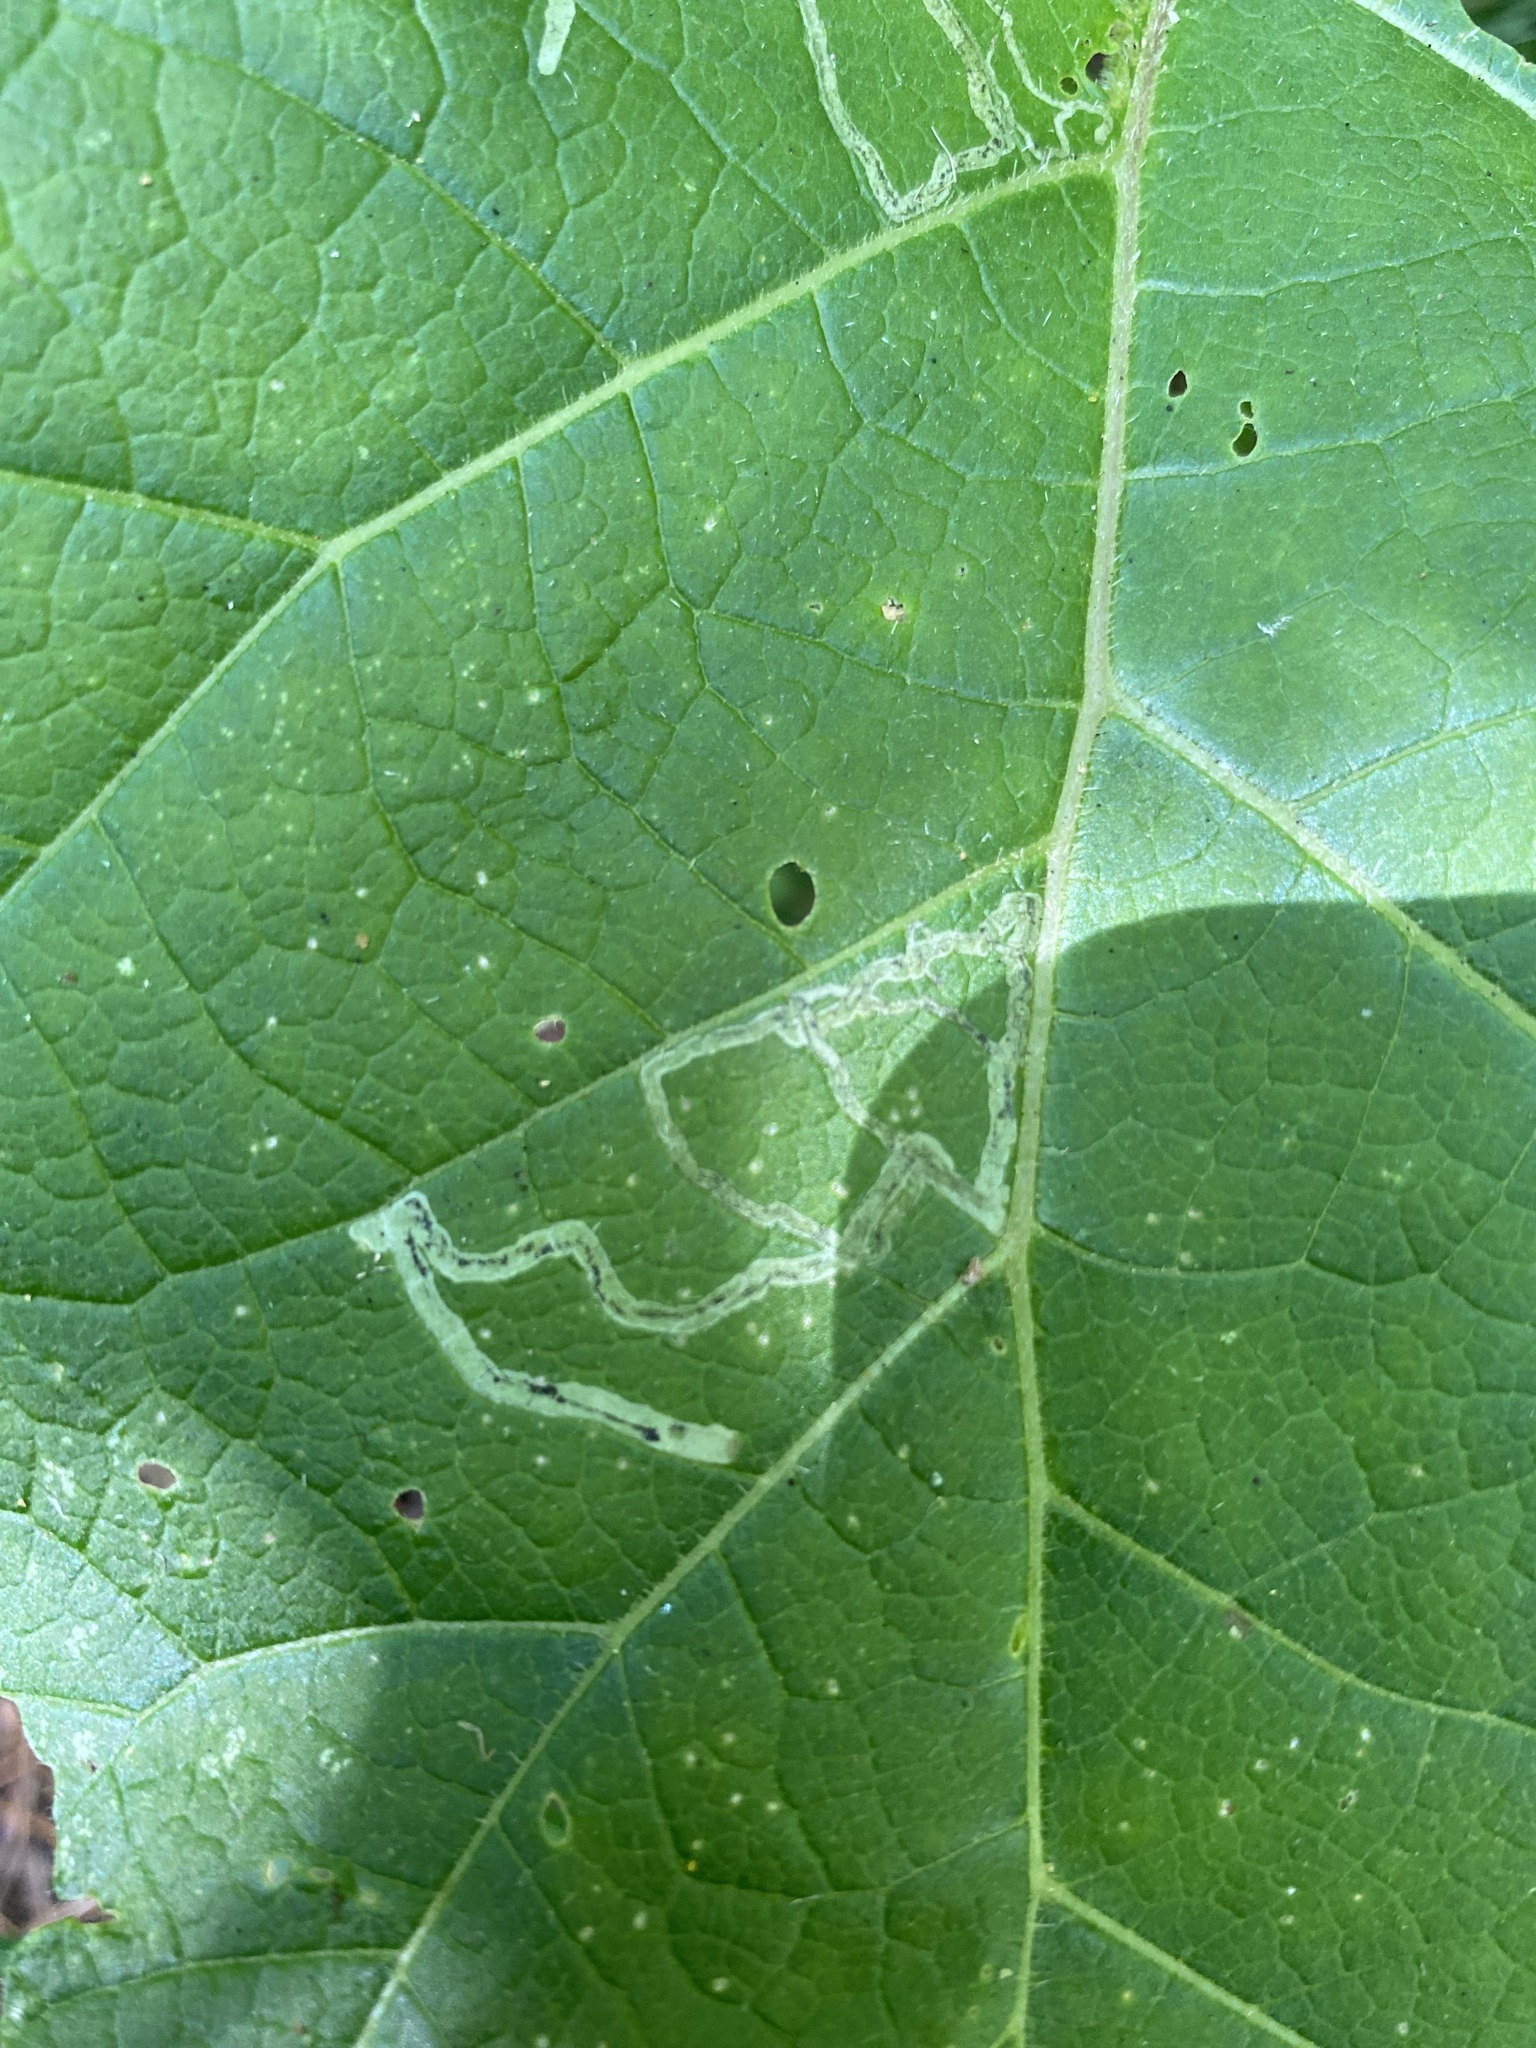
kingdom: Animalia
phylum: Arthropoda
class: Insecta
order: Diptera
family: Agromyzidae
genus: Liriomyza
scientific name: Liriomyza arctii
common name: Burdock leafminer
